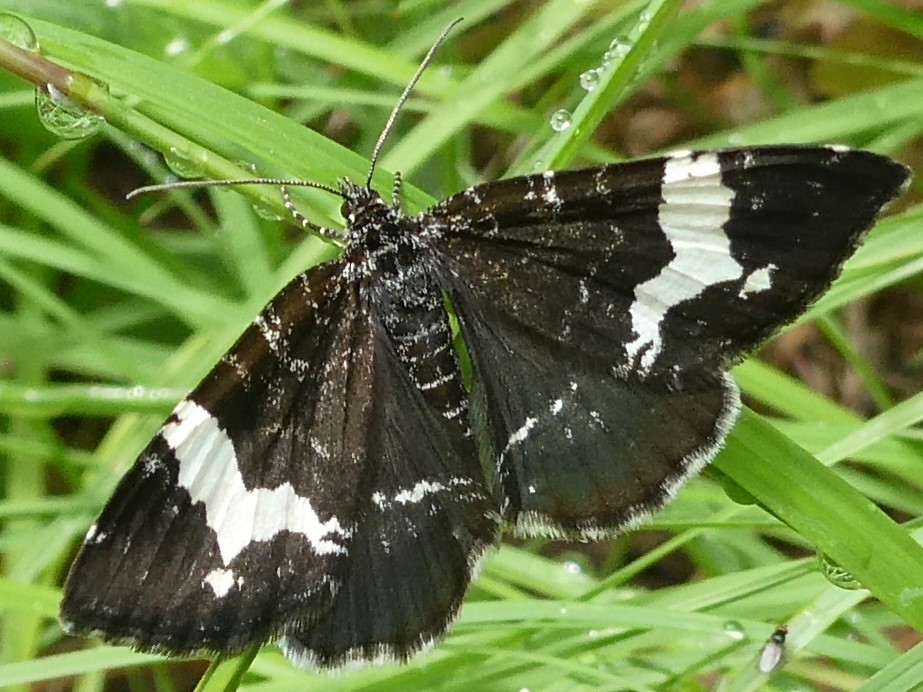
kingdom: Animalia
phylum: Arthropoda
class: Insecta
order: Lepidoptera
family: Geometridae
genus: Rheumaptera
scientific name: Rheumaptera
